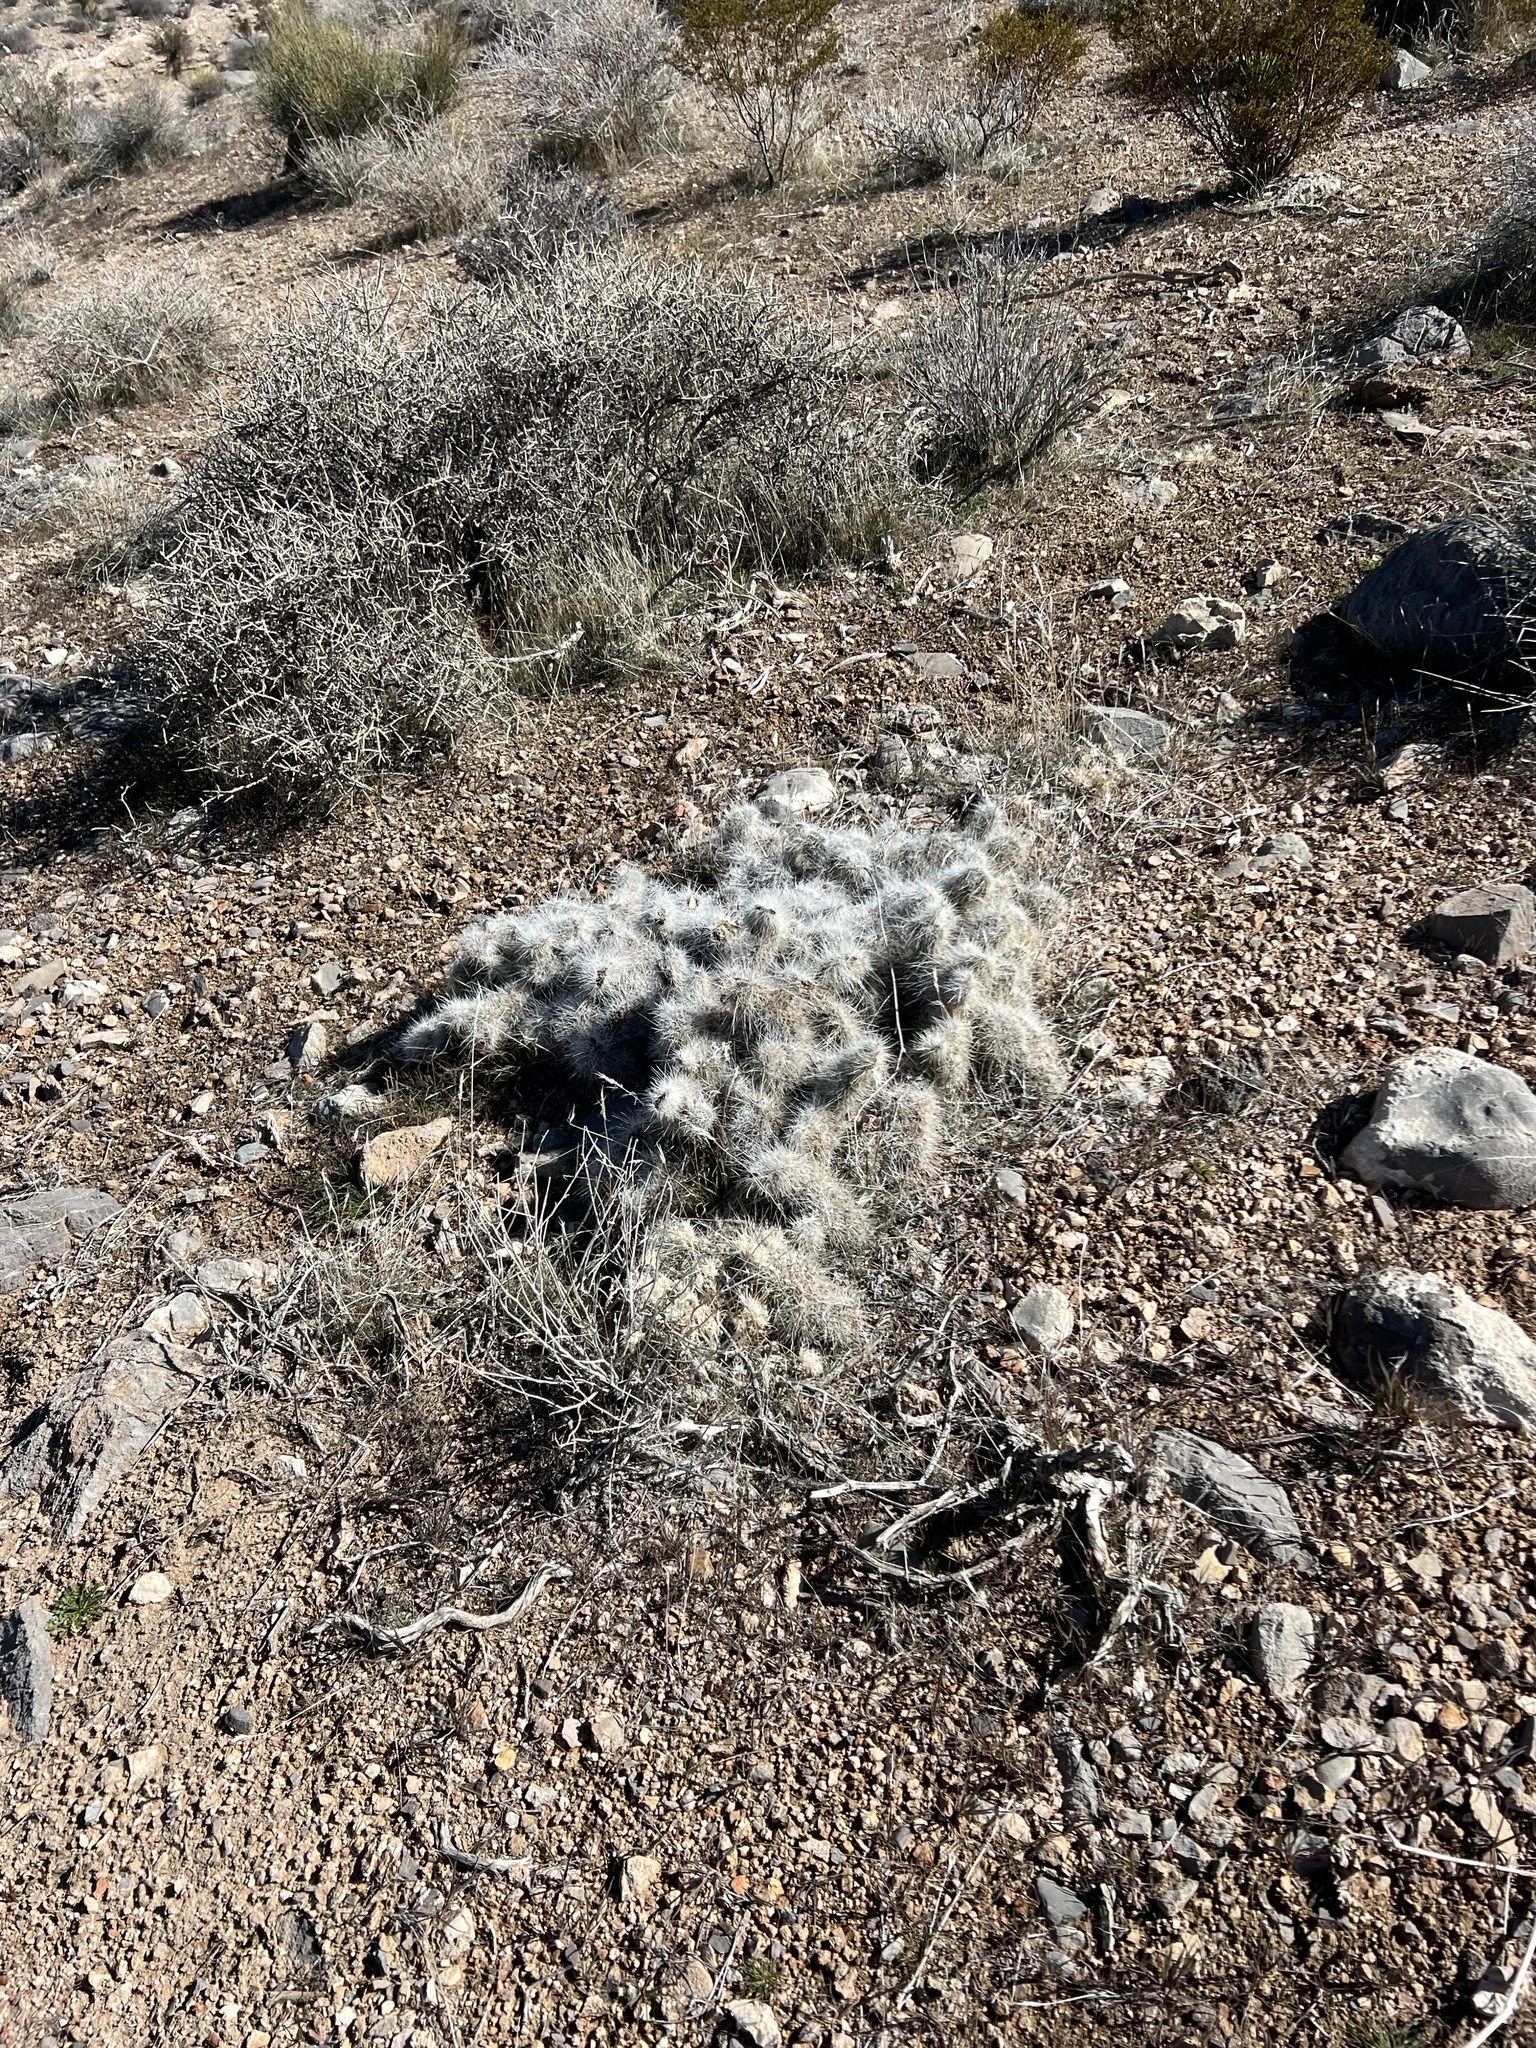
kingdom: Plantae
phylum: Tracheophyta
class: Magnoliopsida
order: Caryophyllales
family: Cactaceae
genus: Opuntia
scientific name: Opuntia polyacantha
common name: Plains prickly-pear
